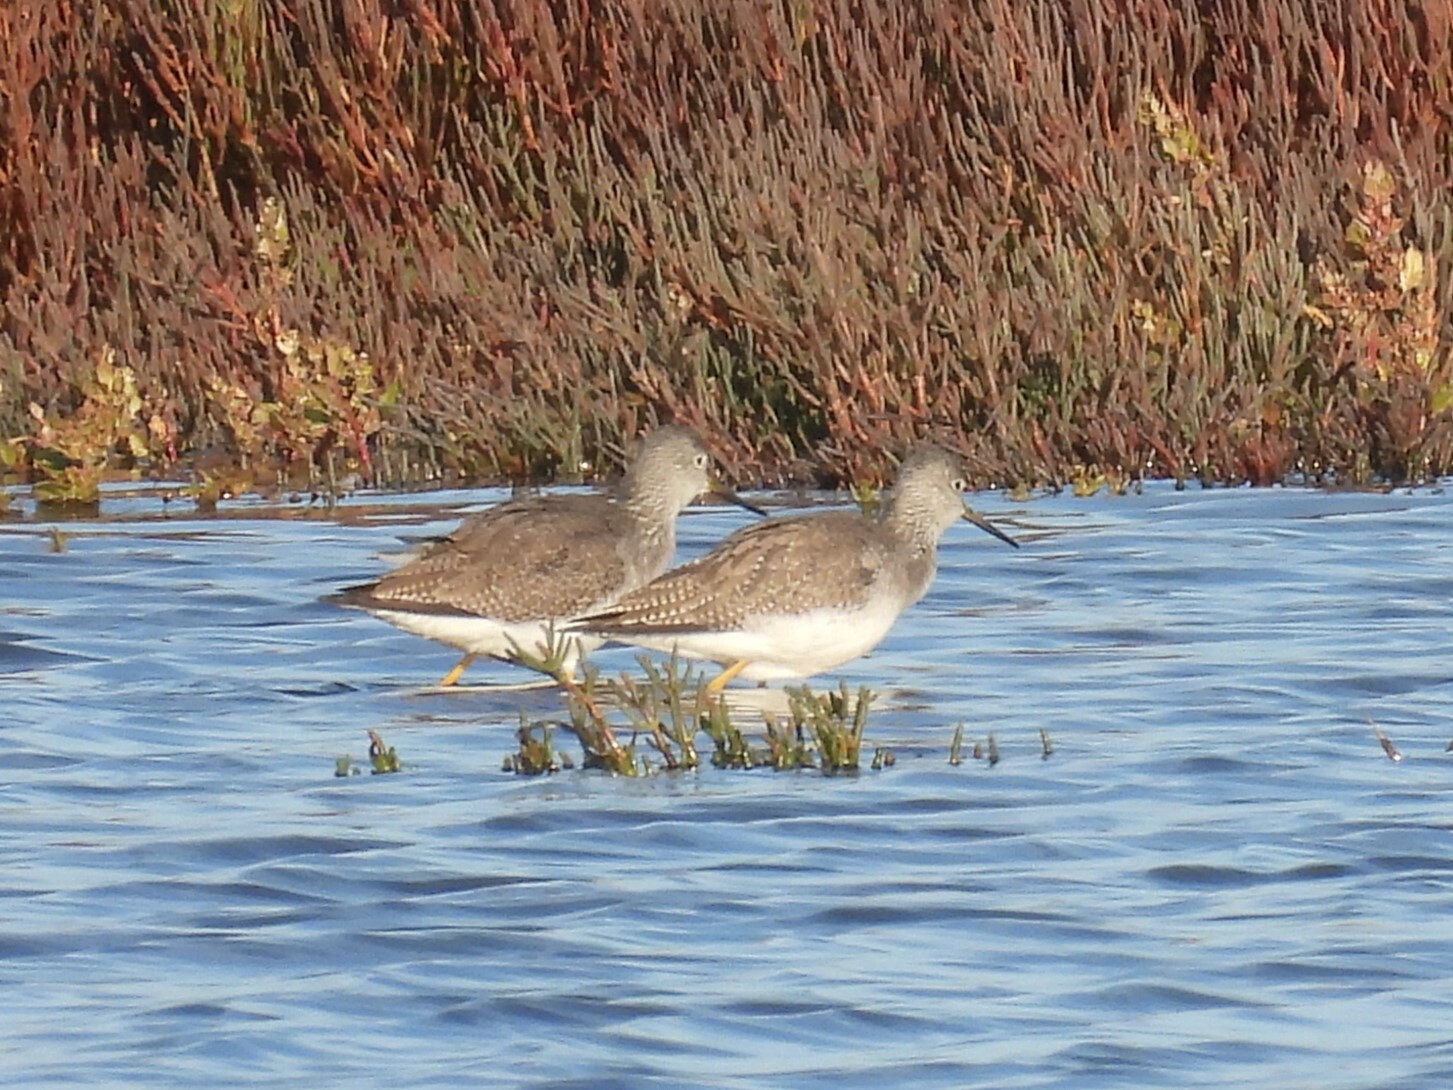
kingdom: Animalia
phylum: Chordata
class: Aves
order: Charadriiformes
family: Scolopacidae
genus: Tringa
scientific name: Tringa melanoleuca
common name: Greater yellowlegs
